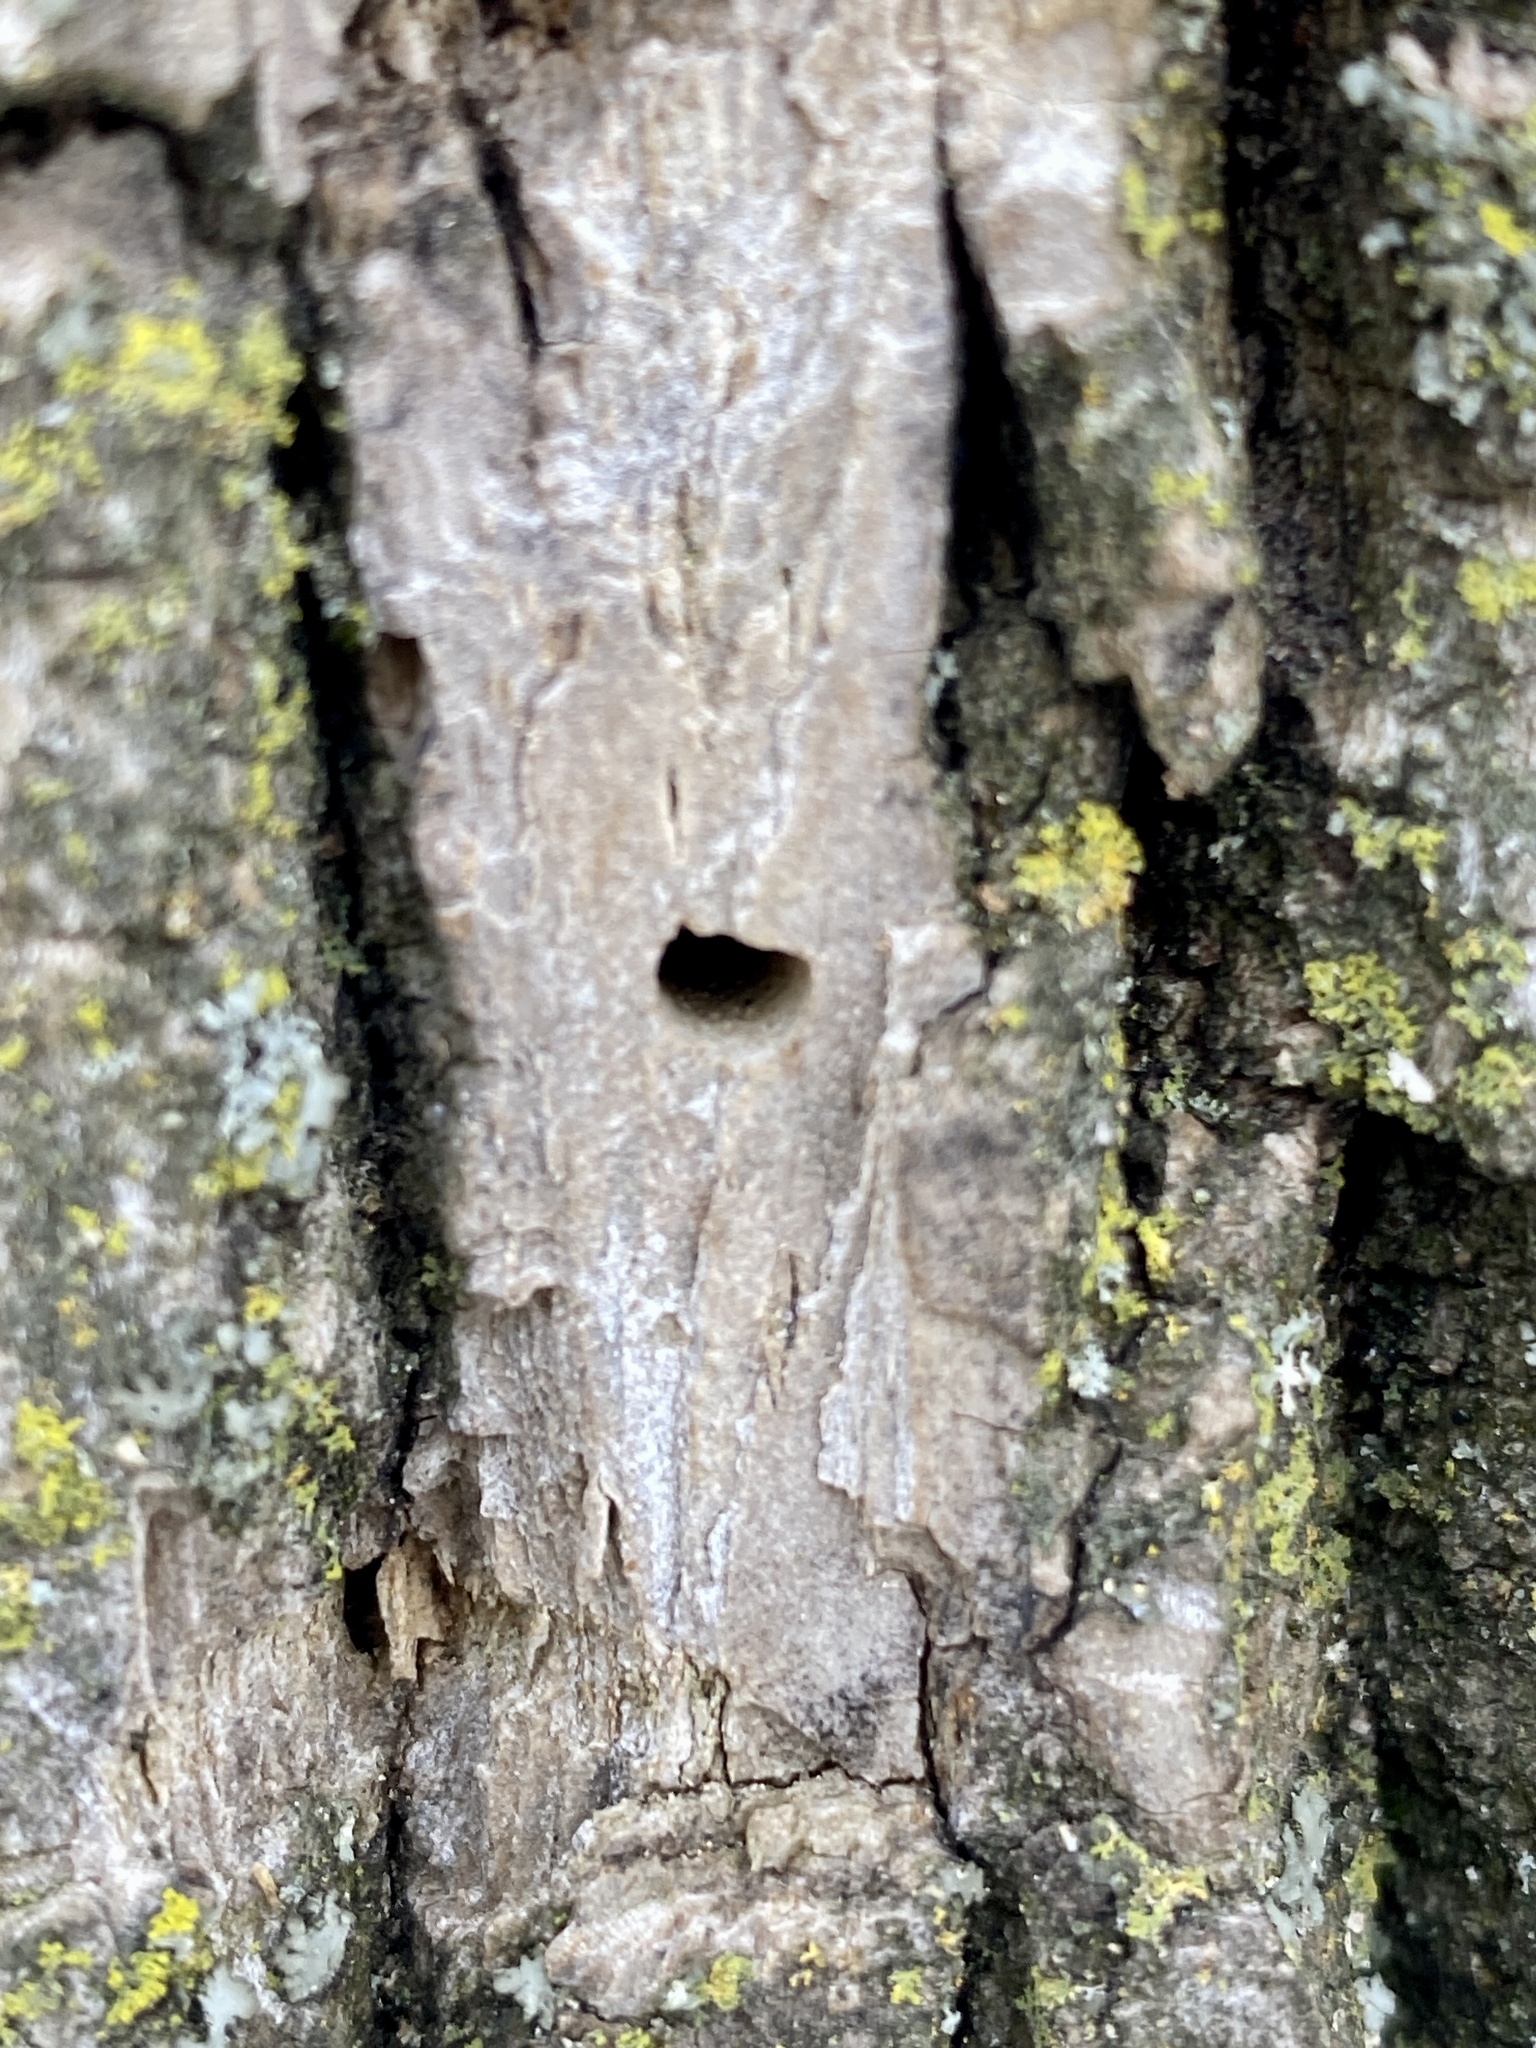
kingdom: Animalia
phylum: Arthropoda
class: Insecta
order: Coleoptera
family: Buprestidae
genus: Agrilus
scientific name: Agrilus planipennis
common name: Emerald ash borer
